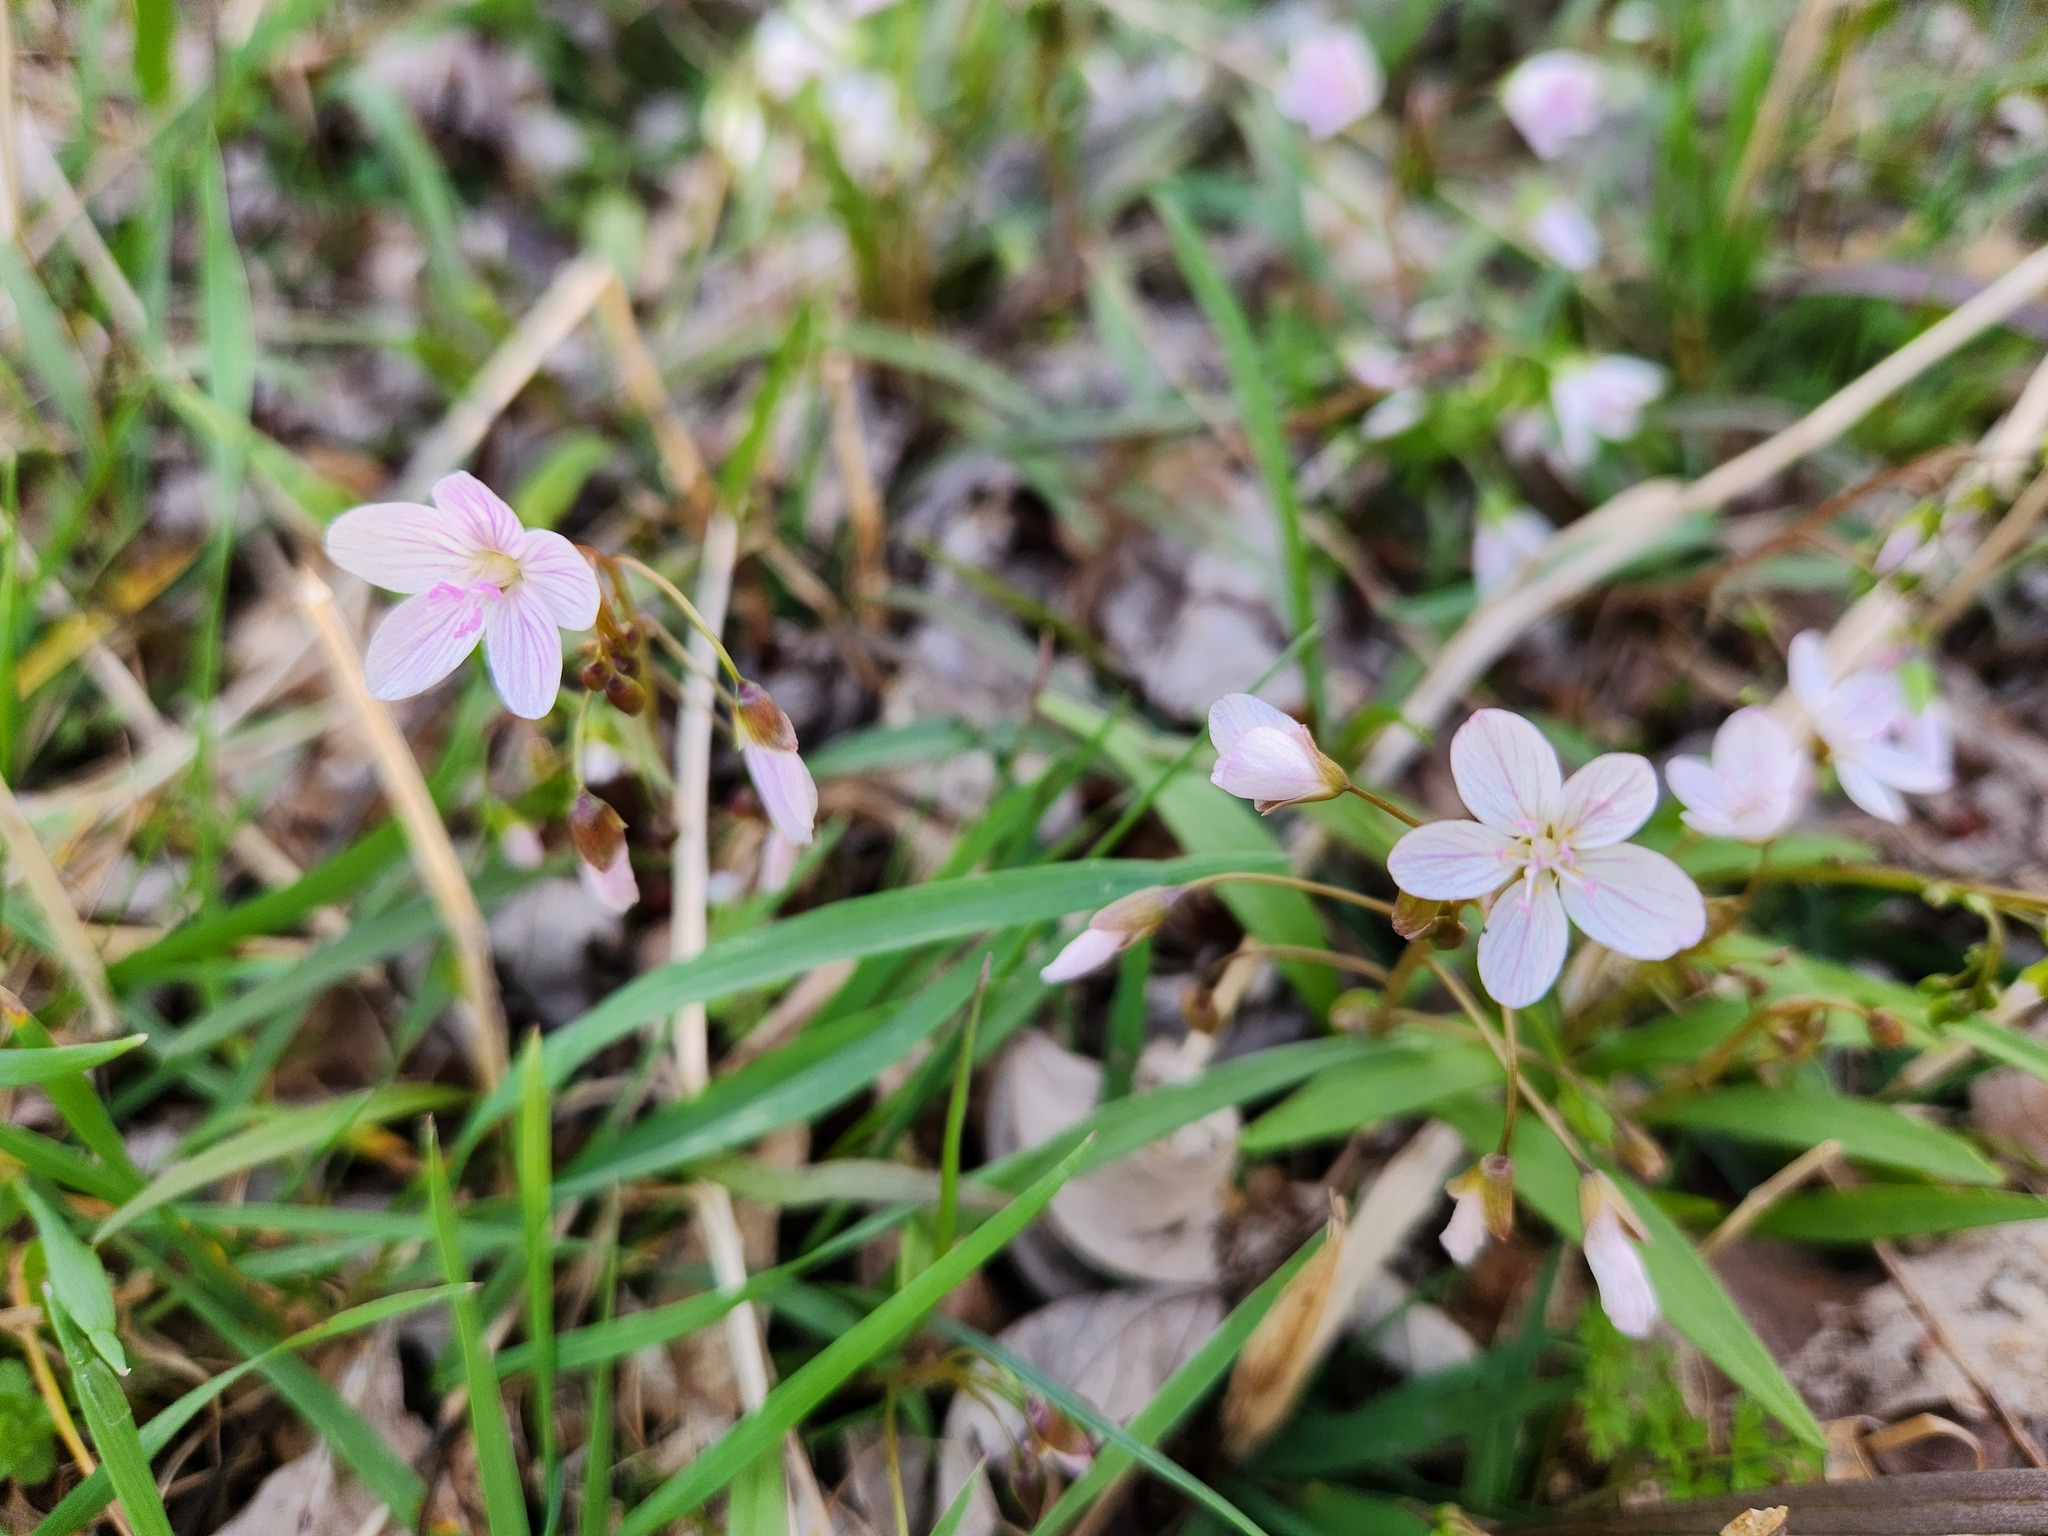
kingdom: Plantae
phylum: Tracheophyta
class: Magnoliopsida
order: Caryophyllales
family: Montiaceae
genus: Claytonia
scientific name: Claytonia virginica
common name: Virginia springbeauty
